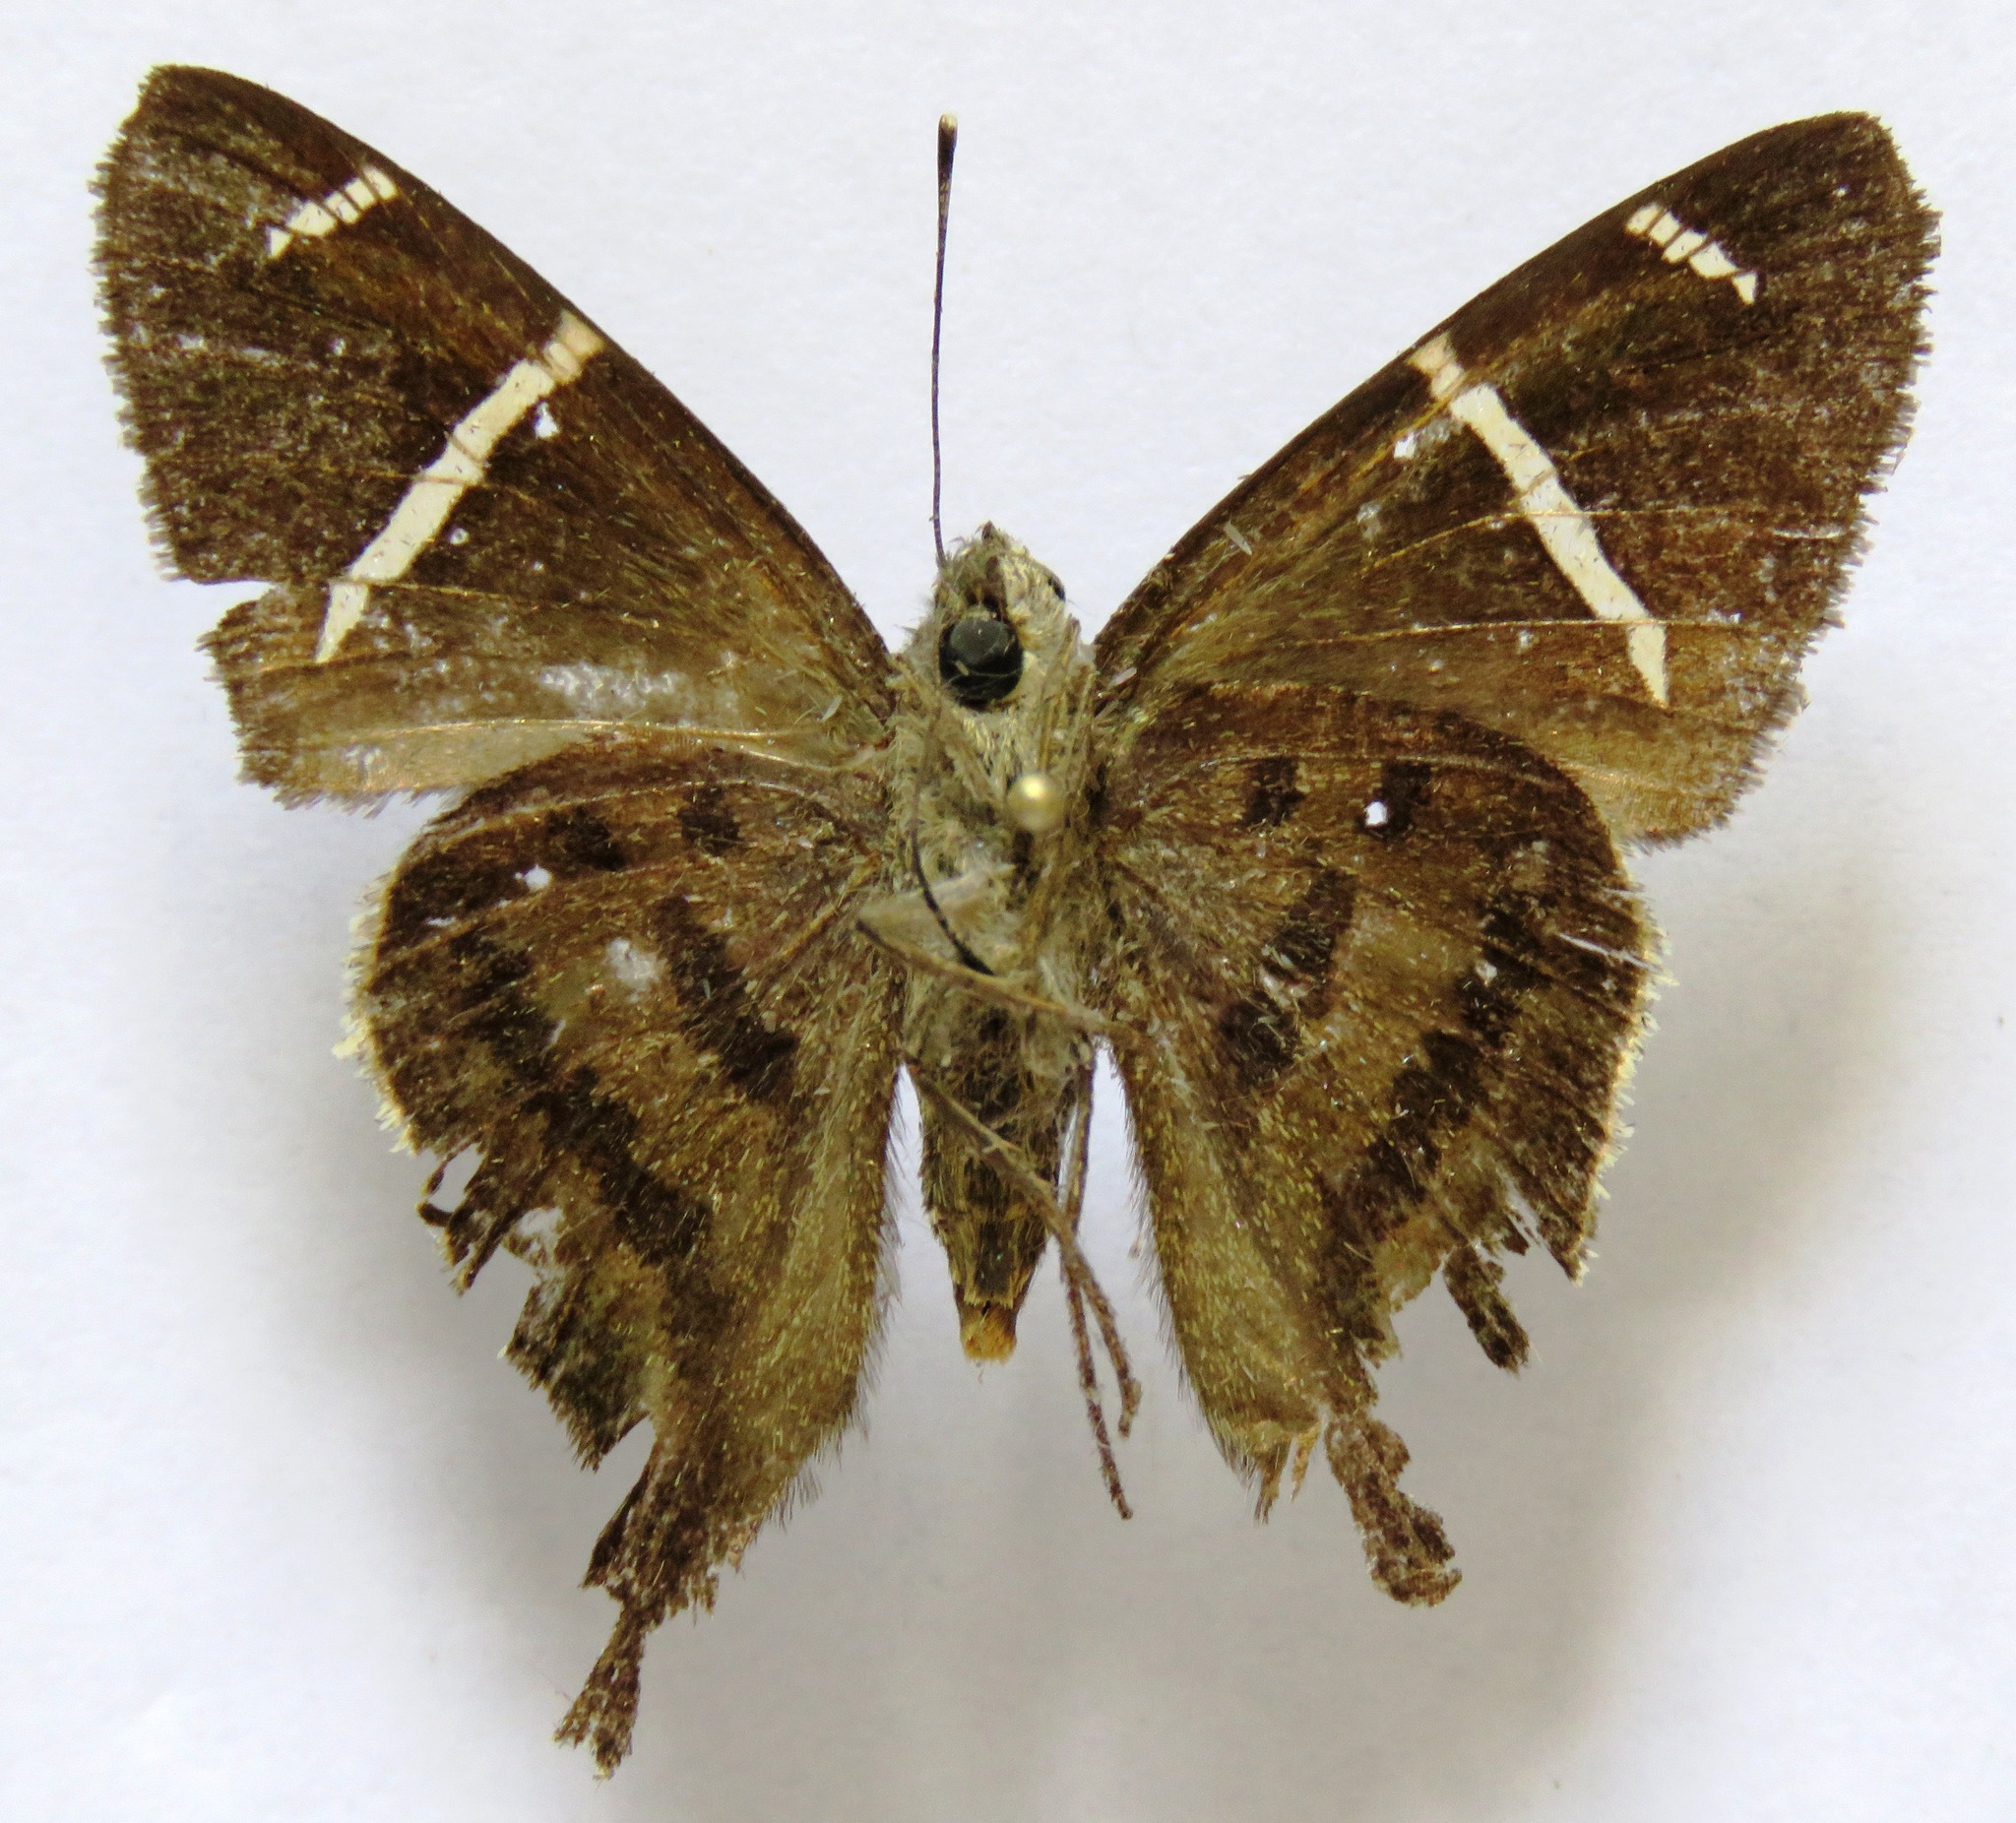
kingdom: Animalia
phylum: Arthropoda
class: Insecta
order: Lepidoptera
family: Hesperiidae
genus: Urbanus
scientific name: Urbanus tanna
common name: Tanna longtail
